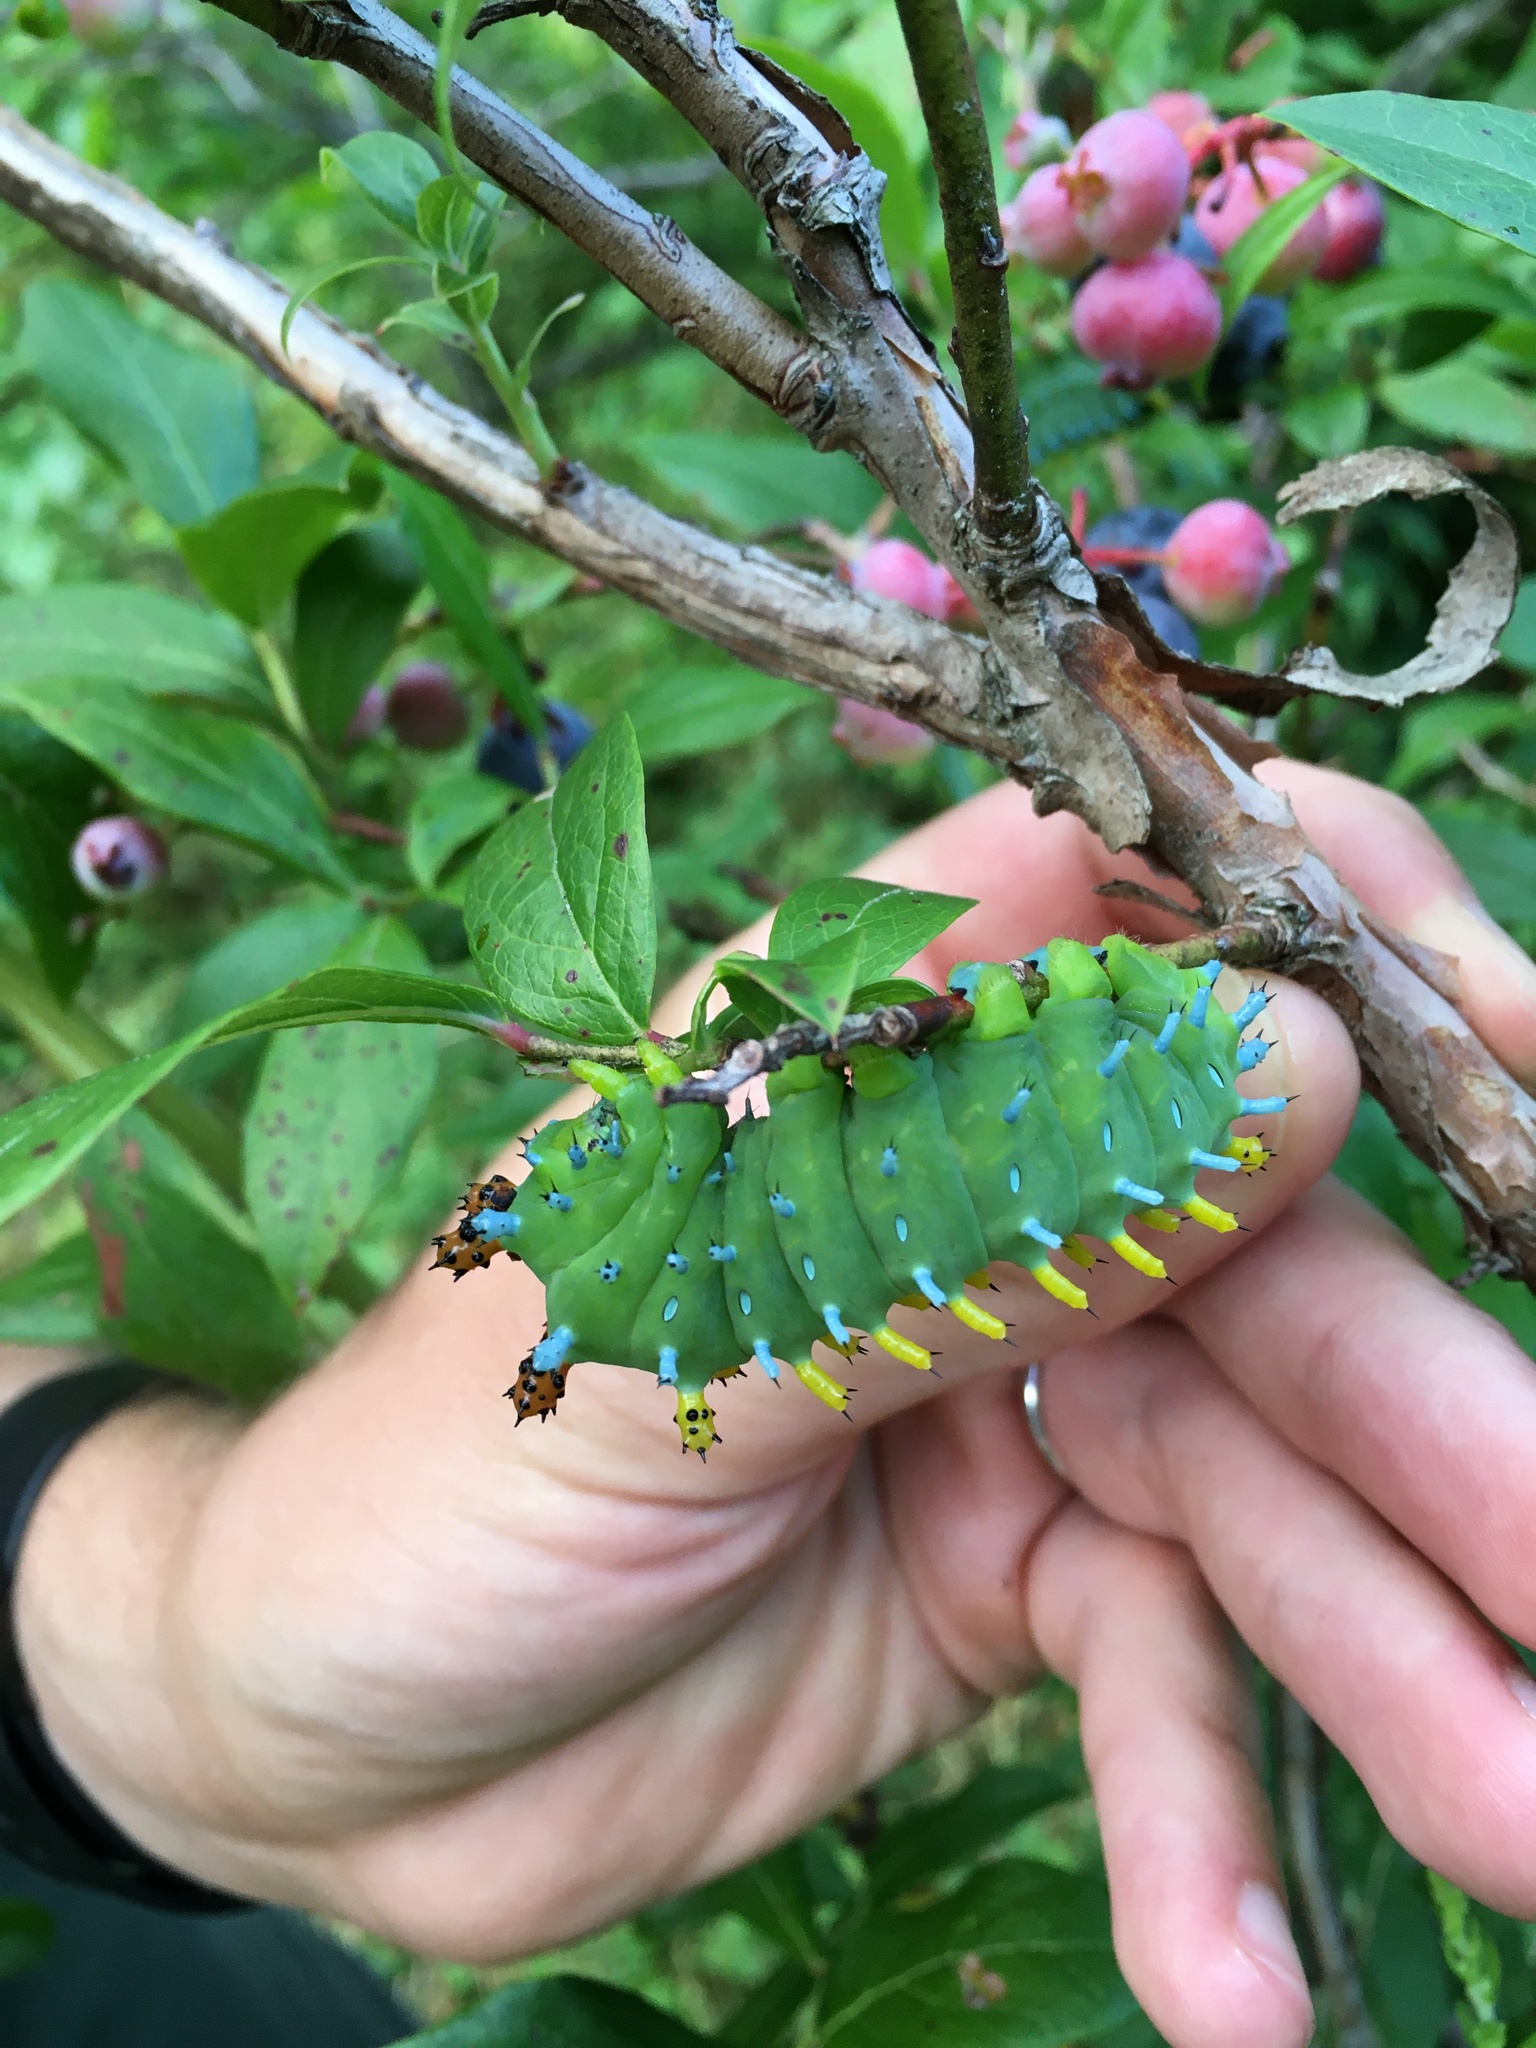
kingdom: Animalia
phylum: Arthropoda
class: Insecta
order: Lepidoptera
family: Saturniidae
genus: Hyalophora
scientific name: Hyalophora cecropia
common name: Cecropia silkmoth
